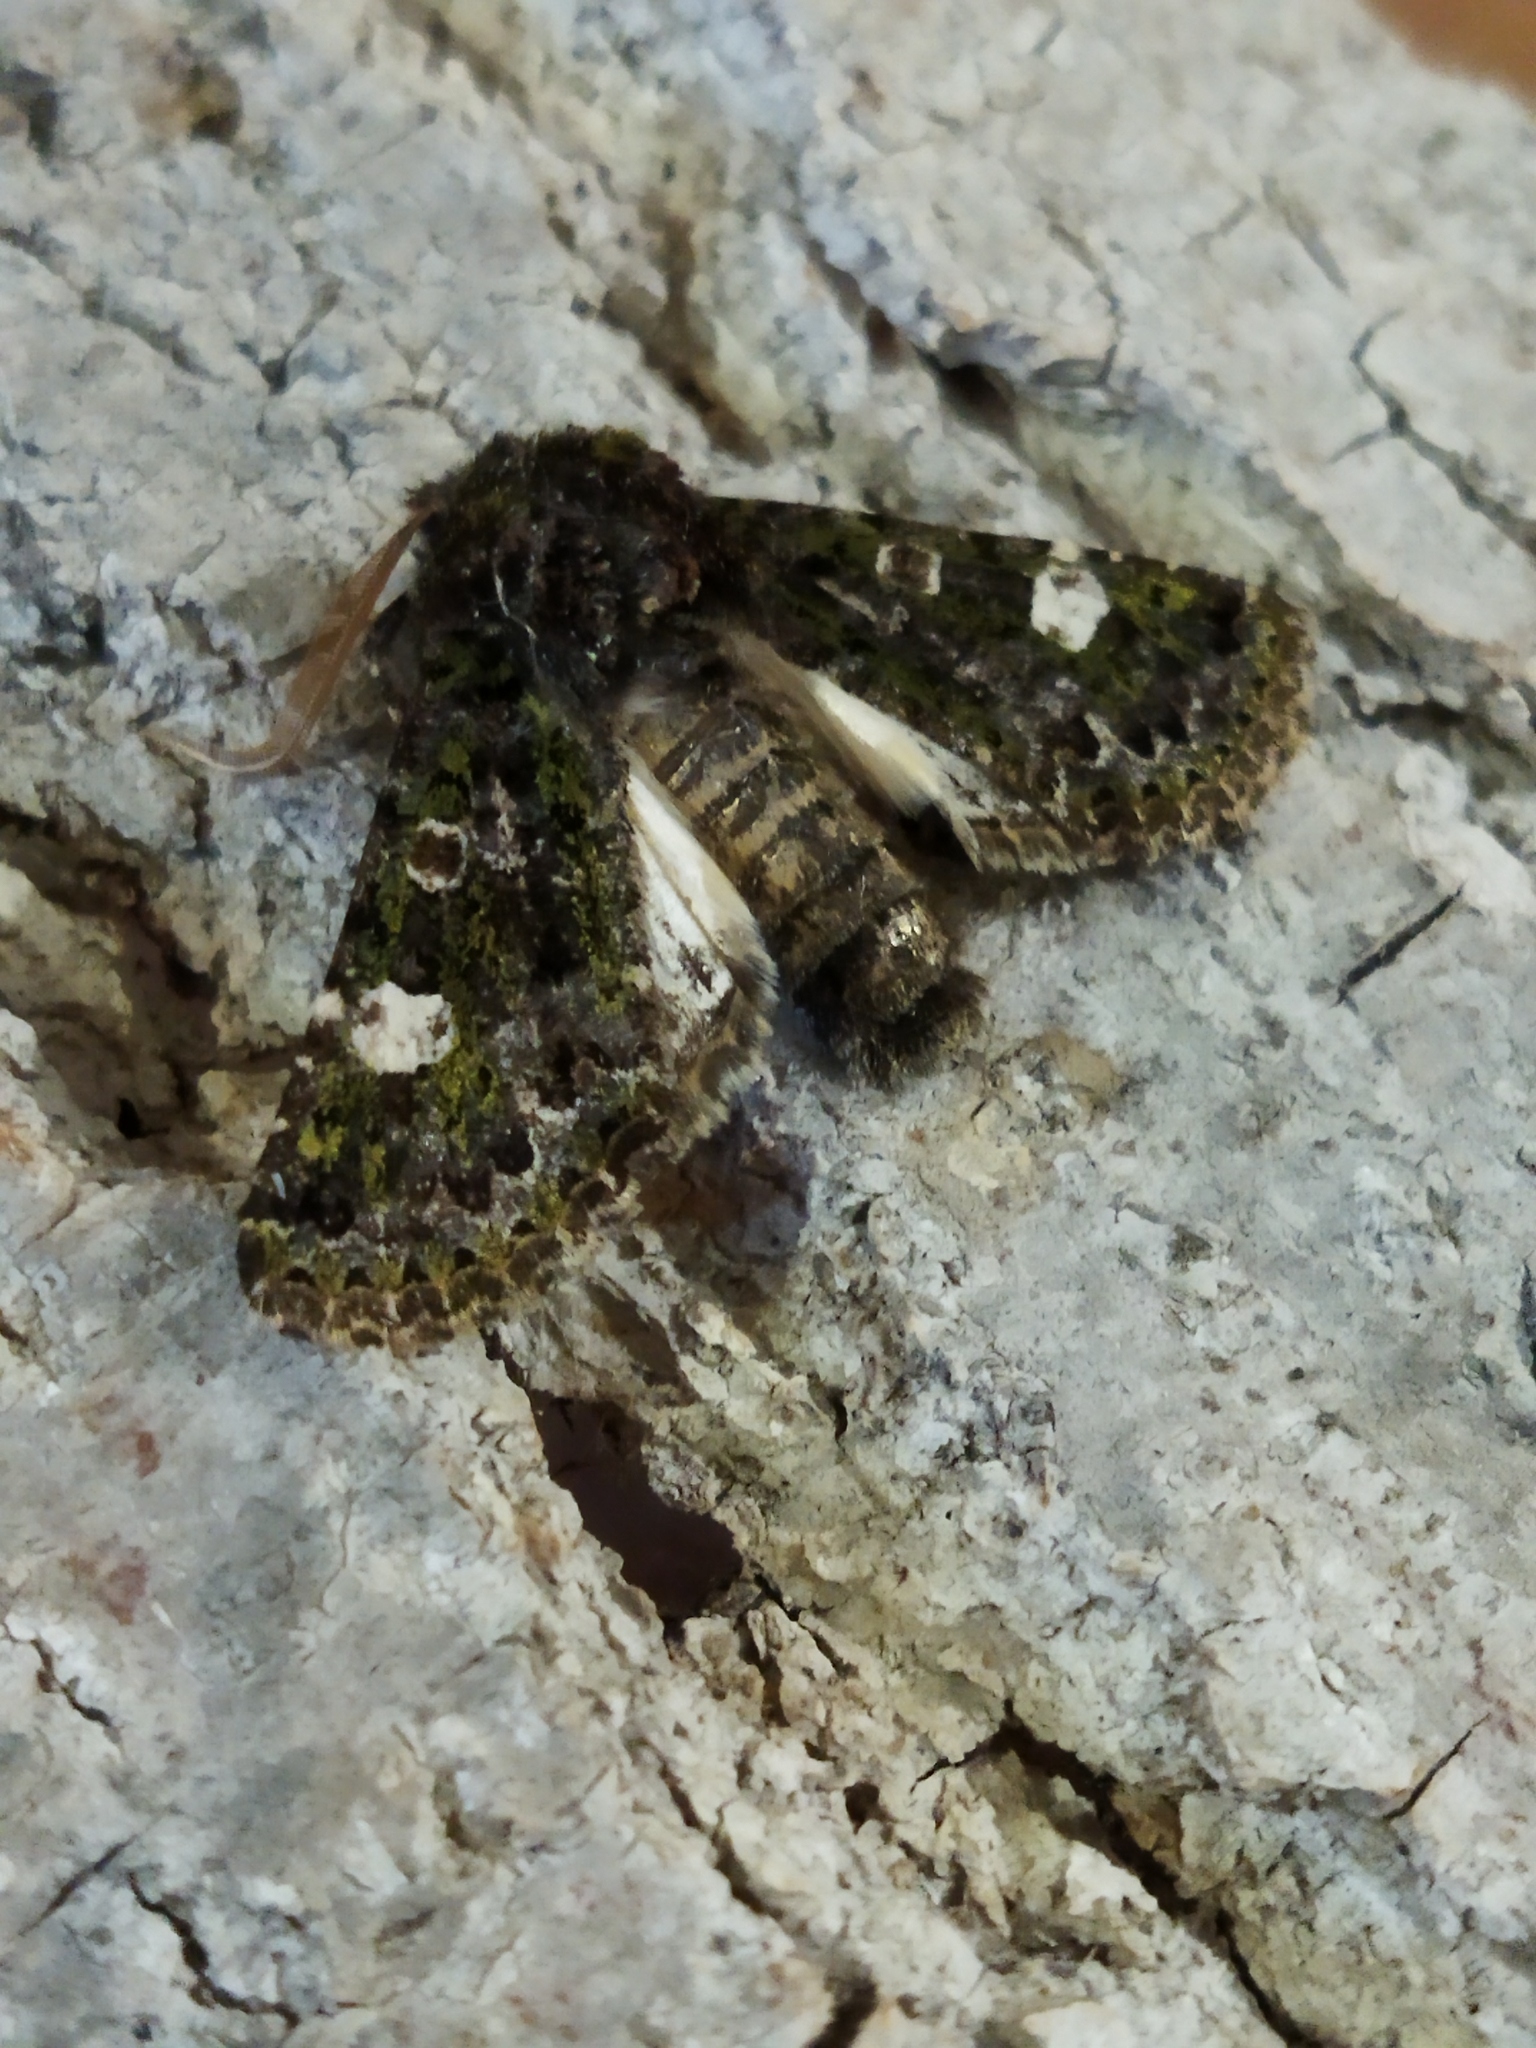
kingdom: Animalia
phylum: Arthropoda
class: Insecta
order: Lepidoptera
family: Noctuidae
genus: Valeria
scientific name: Valeria oleagina
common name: Green-brindled dot
